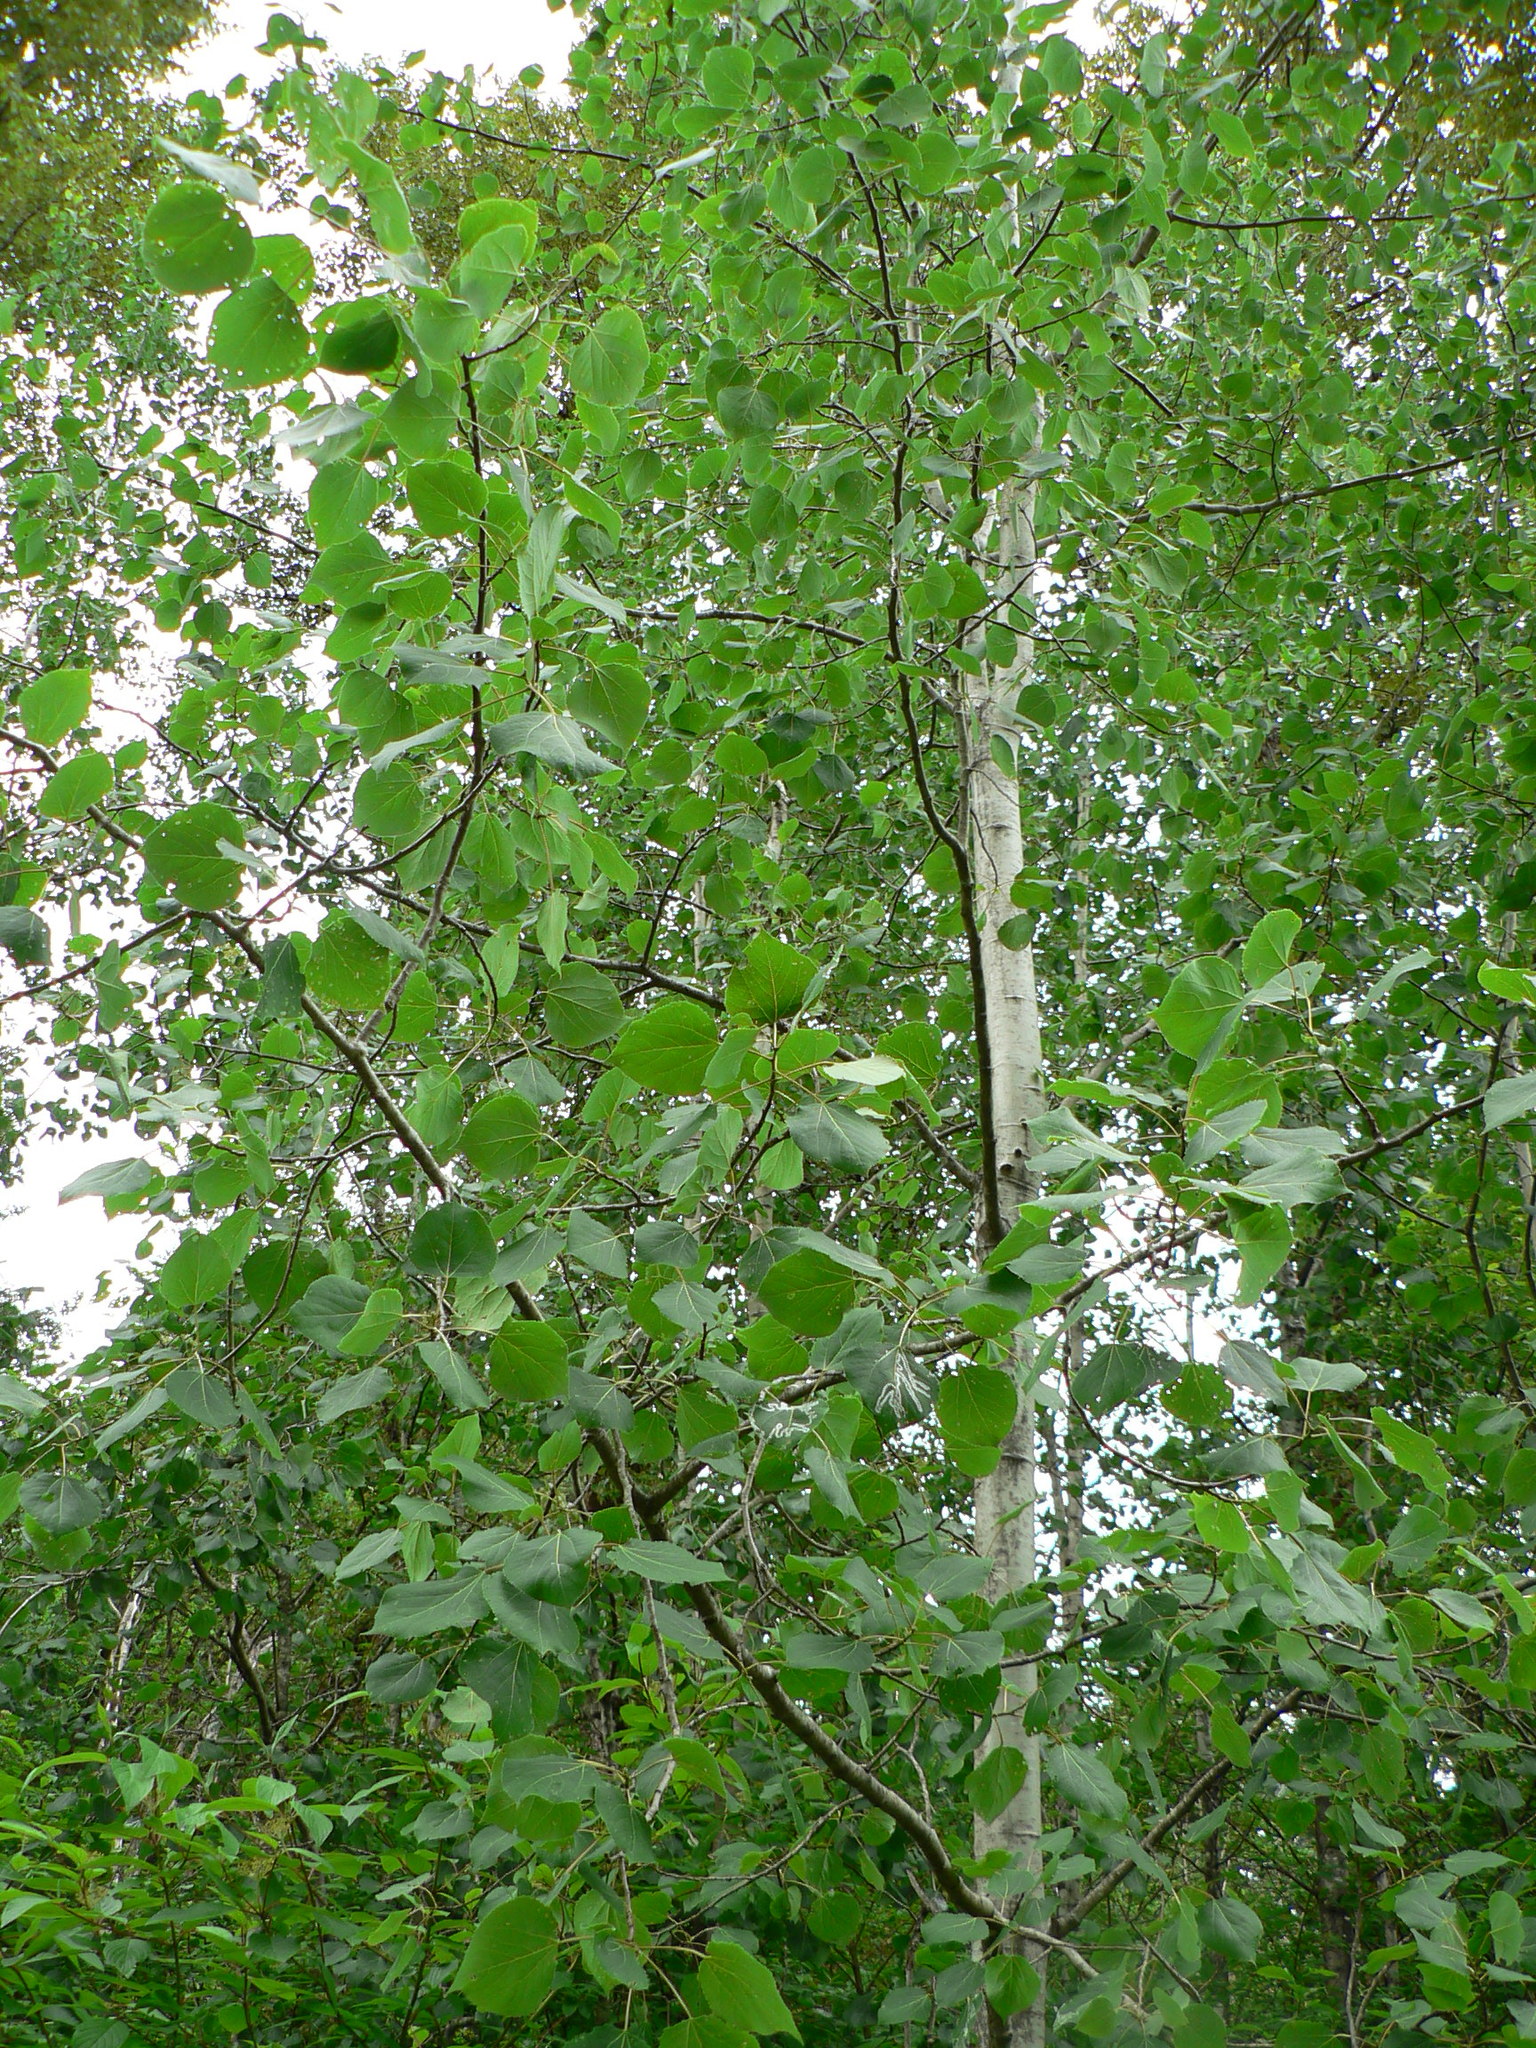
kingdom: Plantae
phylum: Tracheophyta
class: Magnoliopsida
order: Malpighiales
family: Salicaceae
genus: Populus
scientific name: Populus tremuloides
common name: Quaking aspen
